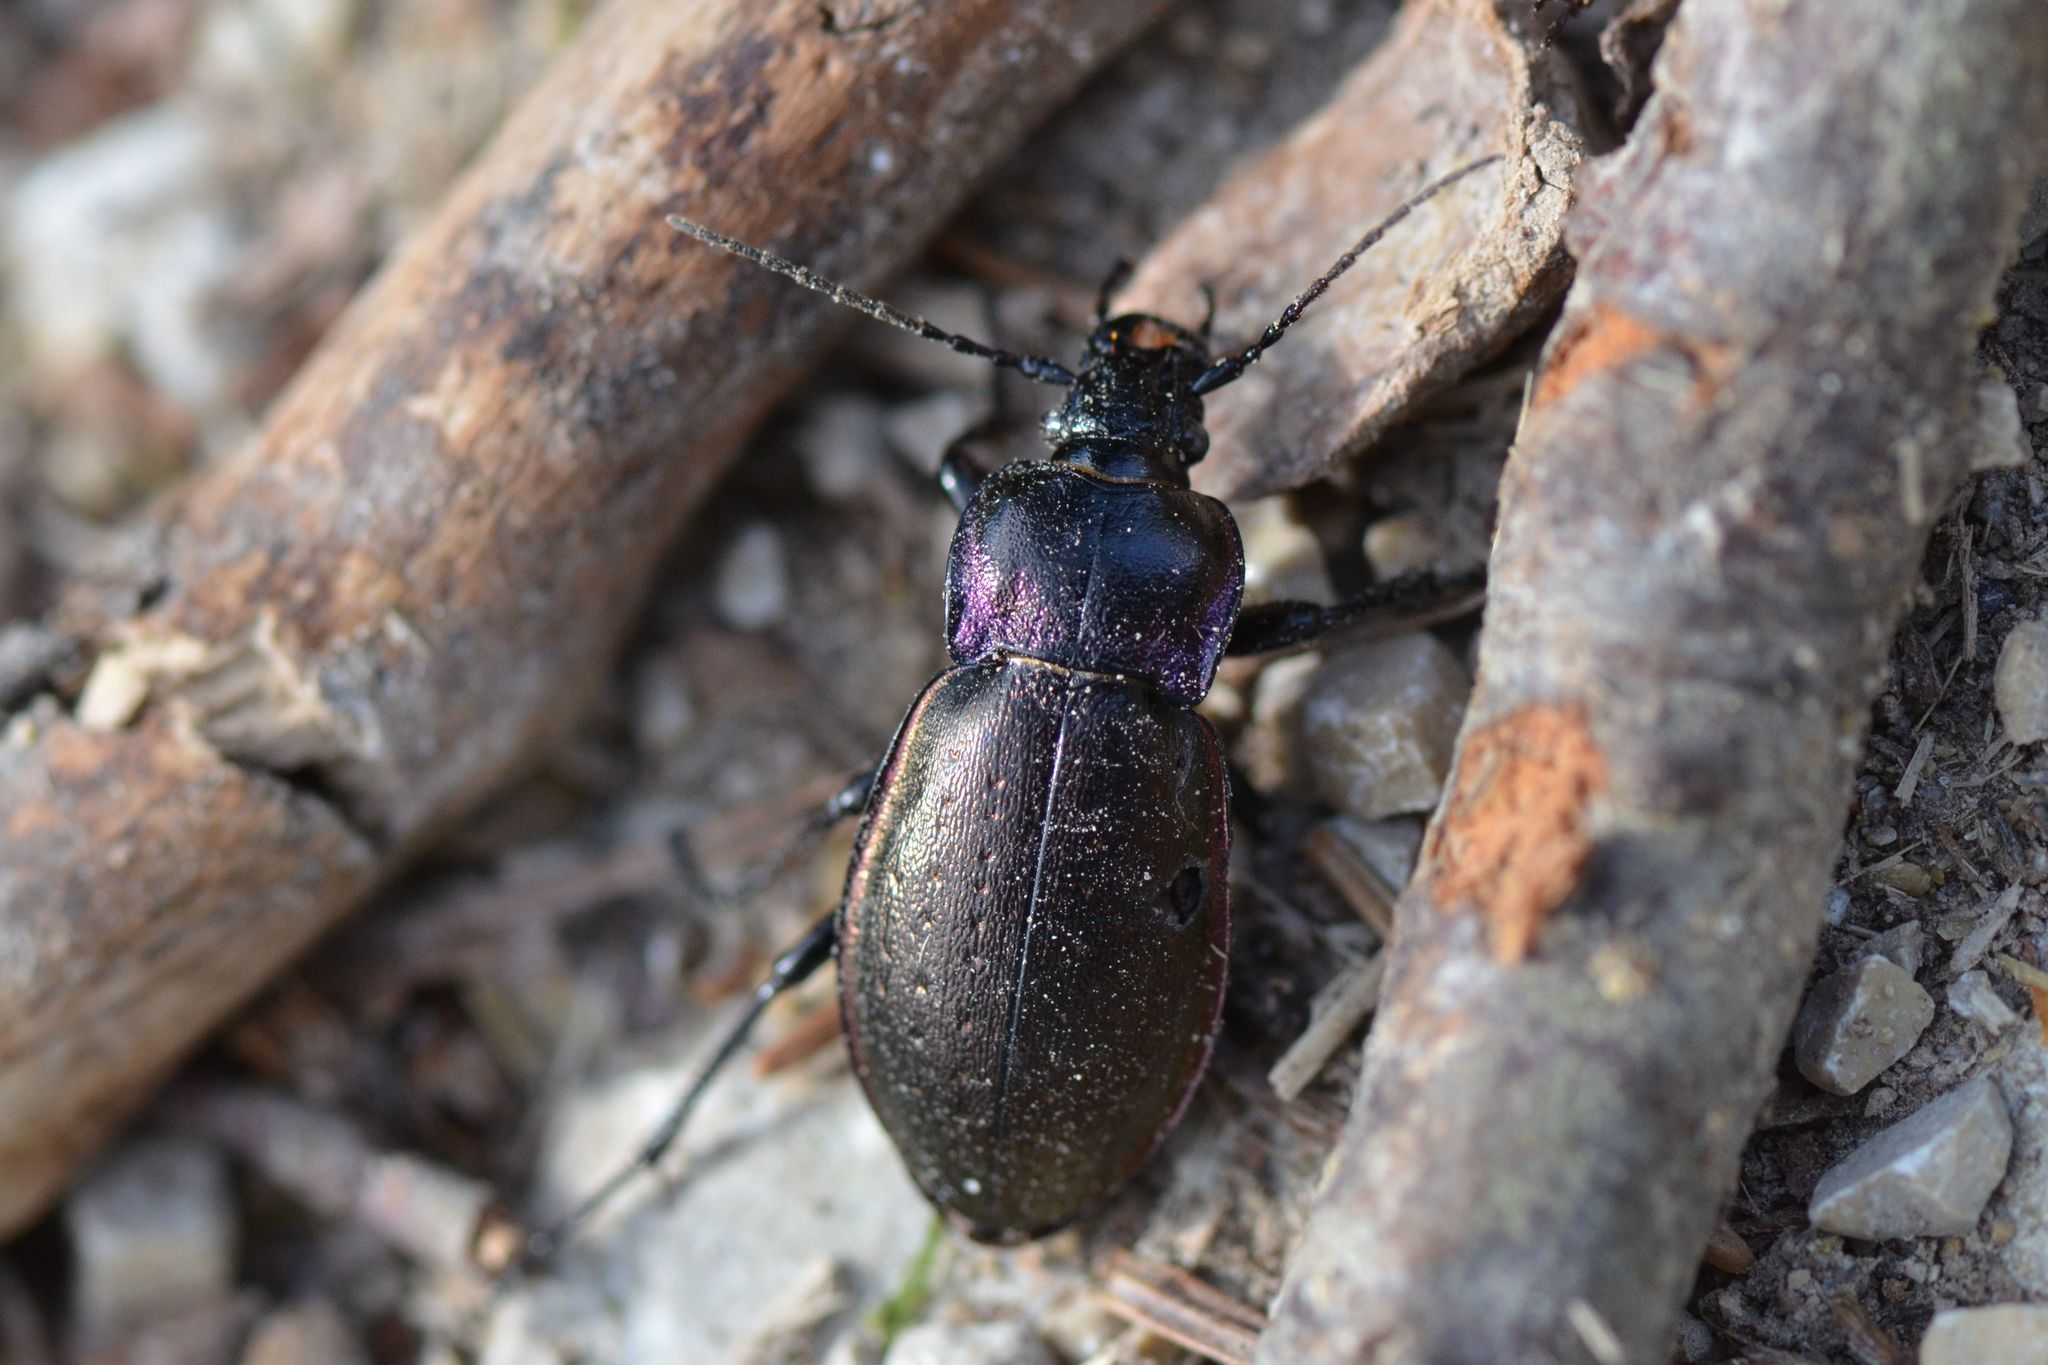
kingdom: Animalia
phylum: Arthropoda
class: Insecta
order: Coleoptera
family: Carabidae
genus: Carabus
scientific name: Carabus nemoralis
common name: European ground beetle
